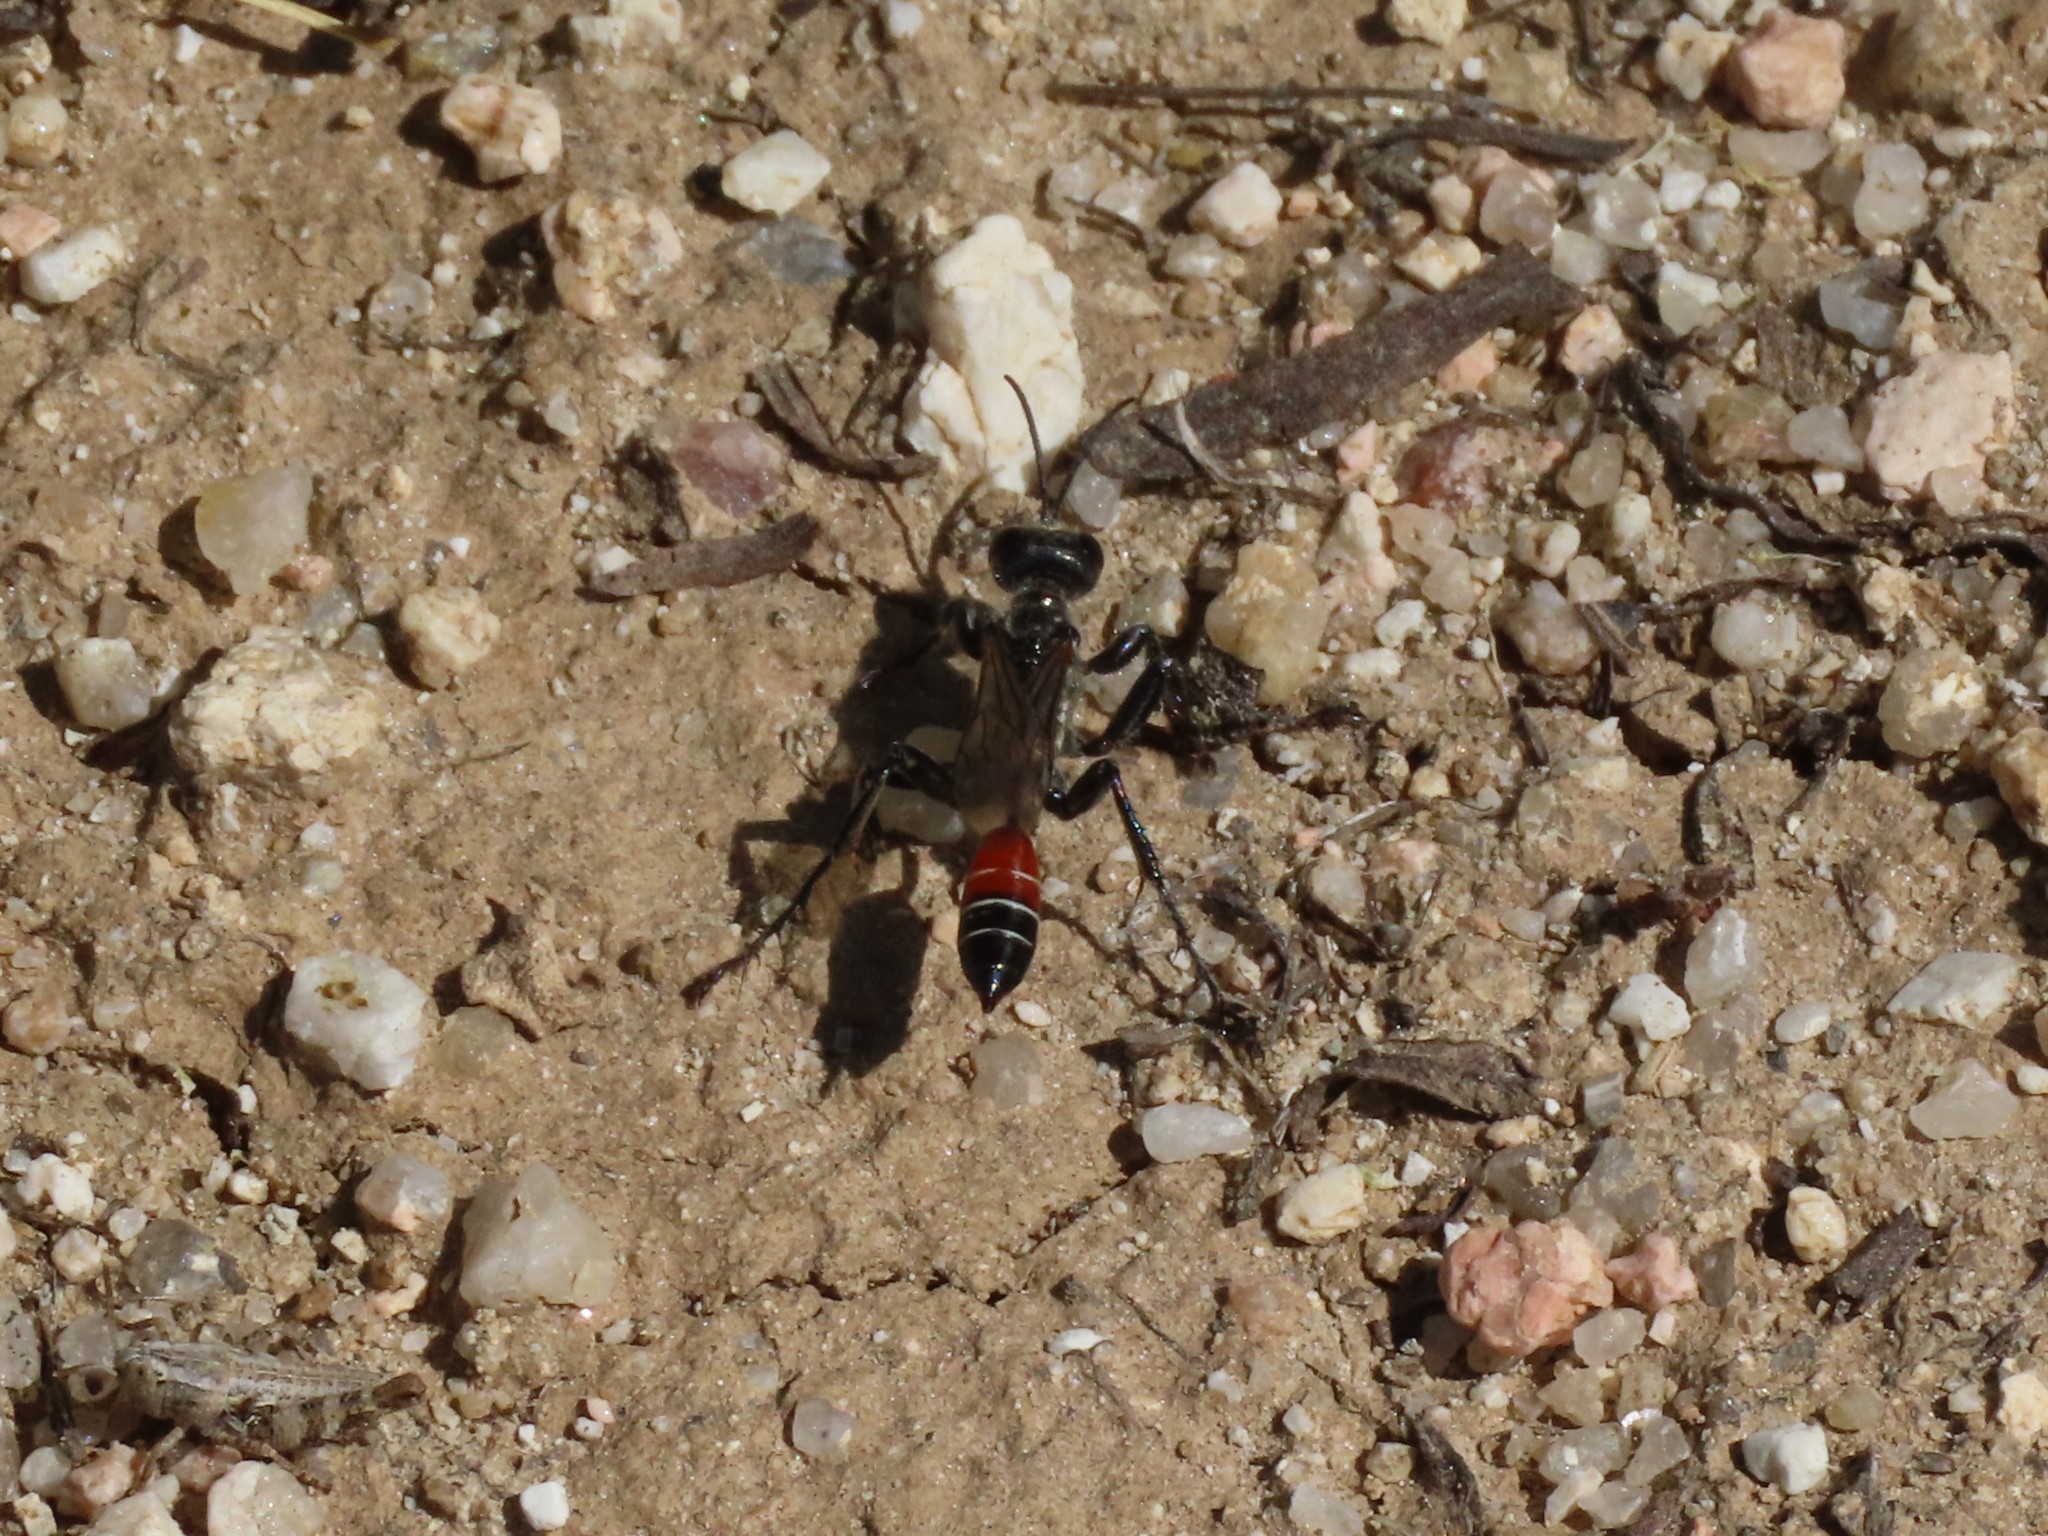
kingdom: Animalia
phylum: Arthropoda
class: Insecta
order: Hymenoptera
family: Sphecidae
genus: Prionyx
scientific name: Prionyx kirbii
